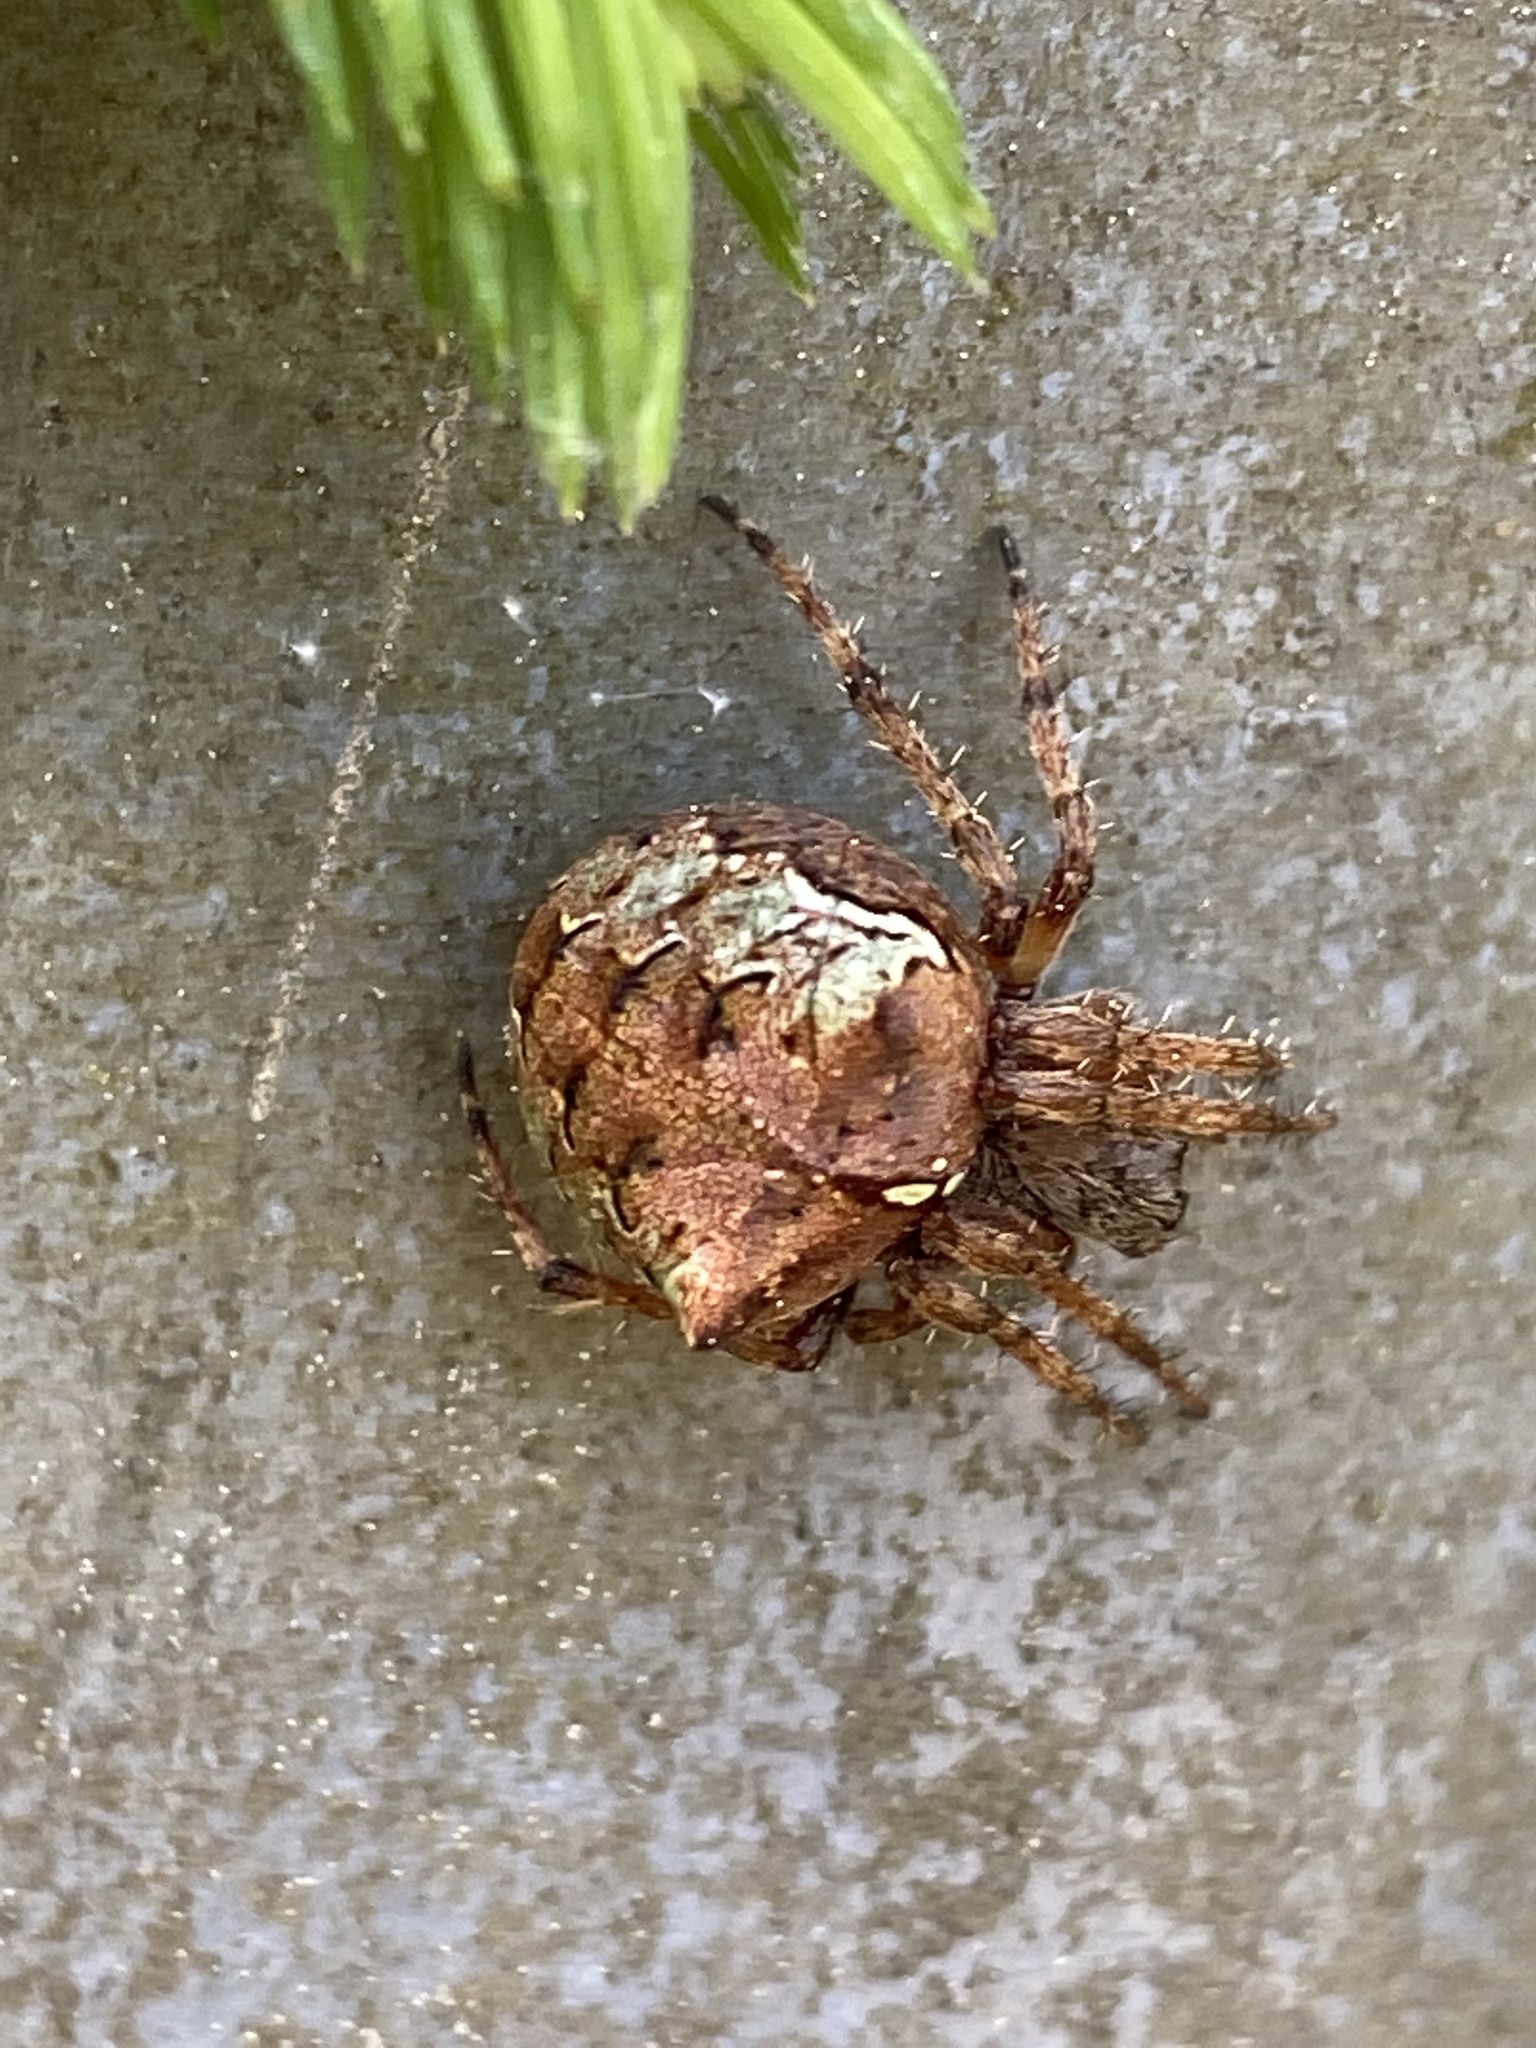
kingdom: Animalia
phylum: Arthropoda
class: Arachnida
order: Araneae
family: Araneidae
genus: Gibbaranea
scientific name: Gibbaranea gibbosa
